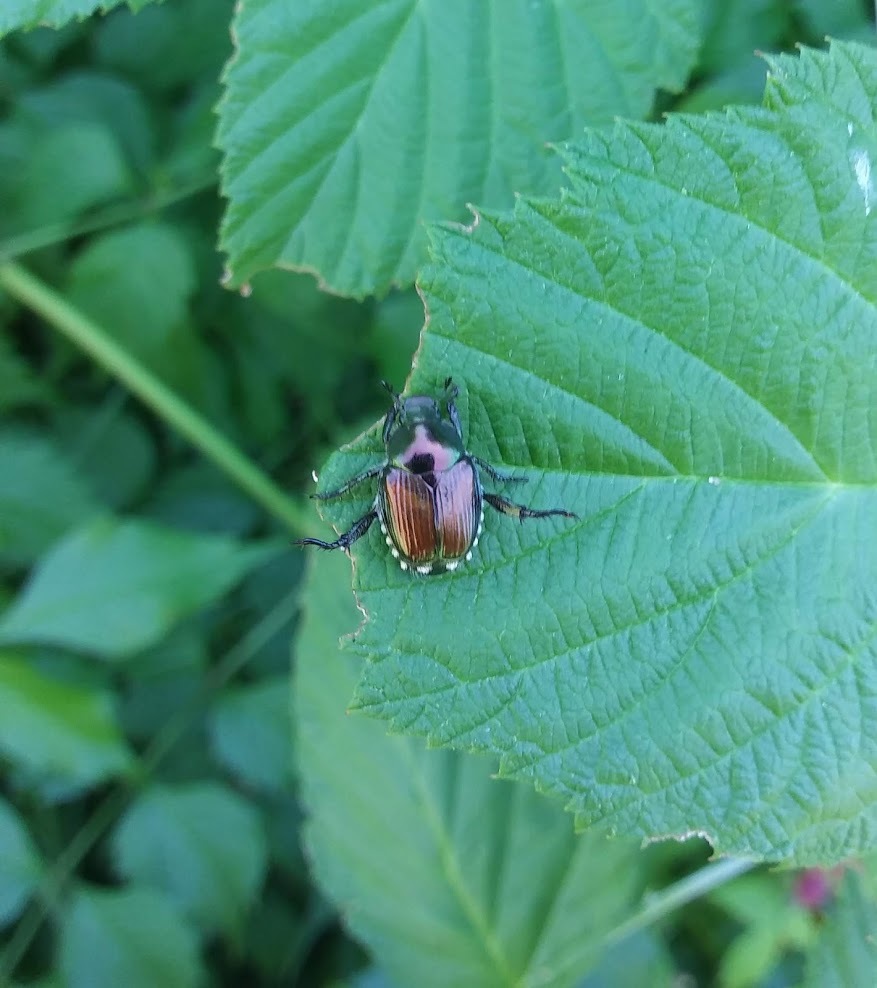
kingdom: Animalia
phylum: Arthropoda
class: Insecta
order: Coleoptera
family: Scarabaeidae
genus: Popillia
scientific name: Popillia japonica
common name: Japanese beetle
